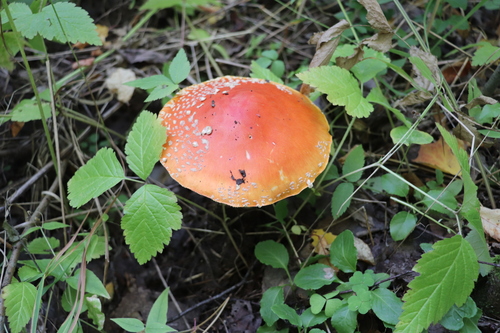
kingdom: Fungi
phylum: Basidiomycota
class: Agaricomycetes
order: Agaricales
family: Amanitaceae
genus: Amanita
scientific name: Amanita muscaria
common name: Fly agaric
